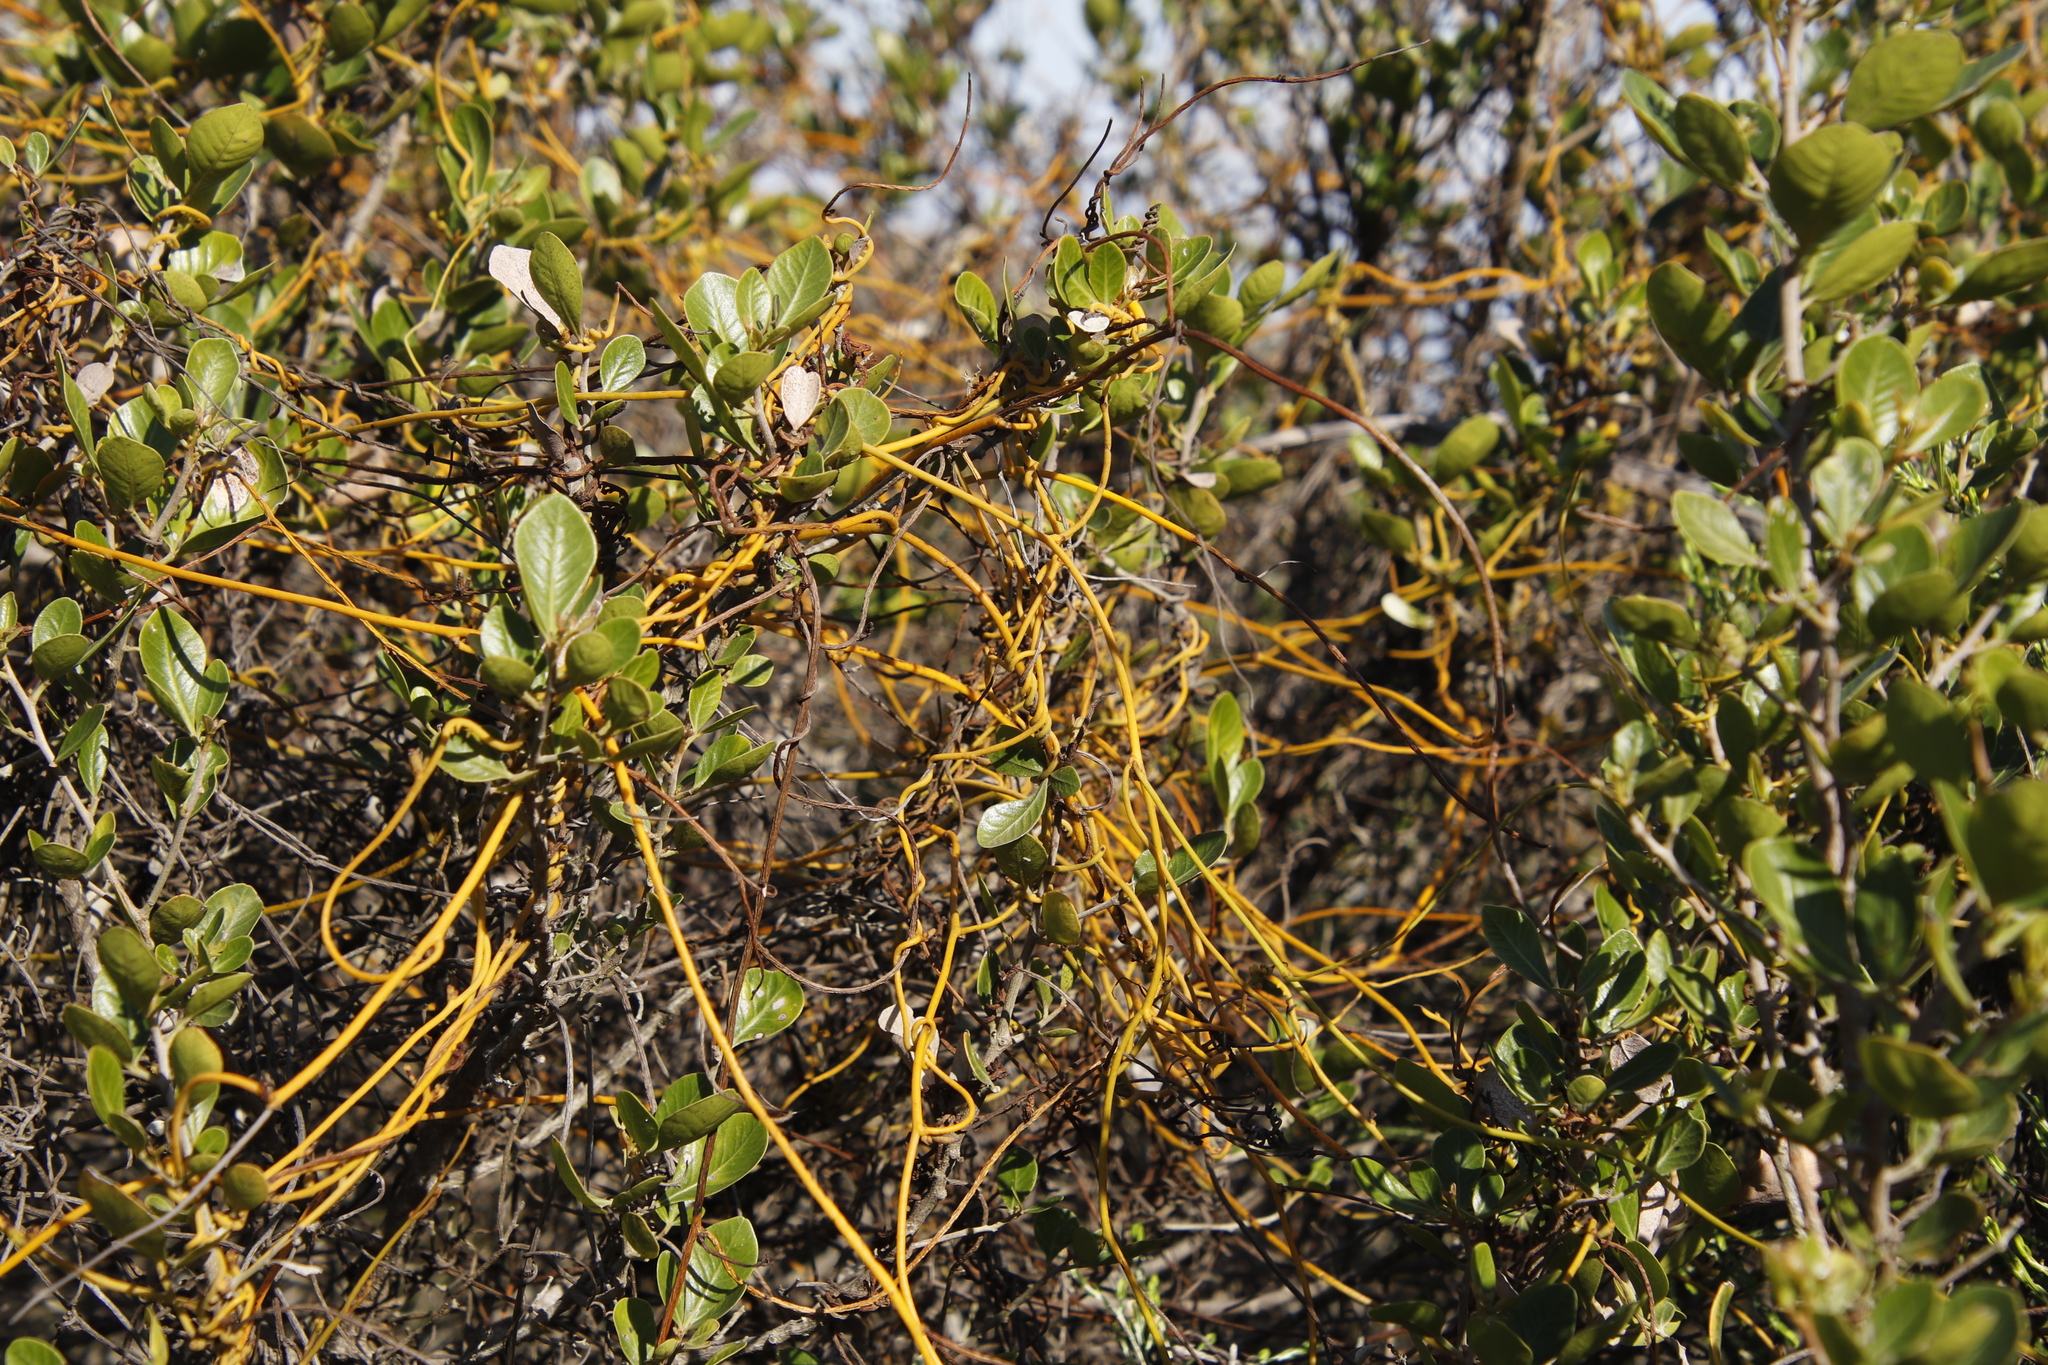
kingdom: Plantae
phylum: Tracheophyta
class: Magnoliopsida
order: Laurales
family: Lauraceae
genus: Cassytha
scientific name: Cassytha ciliolata
